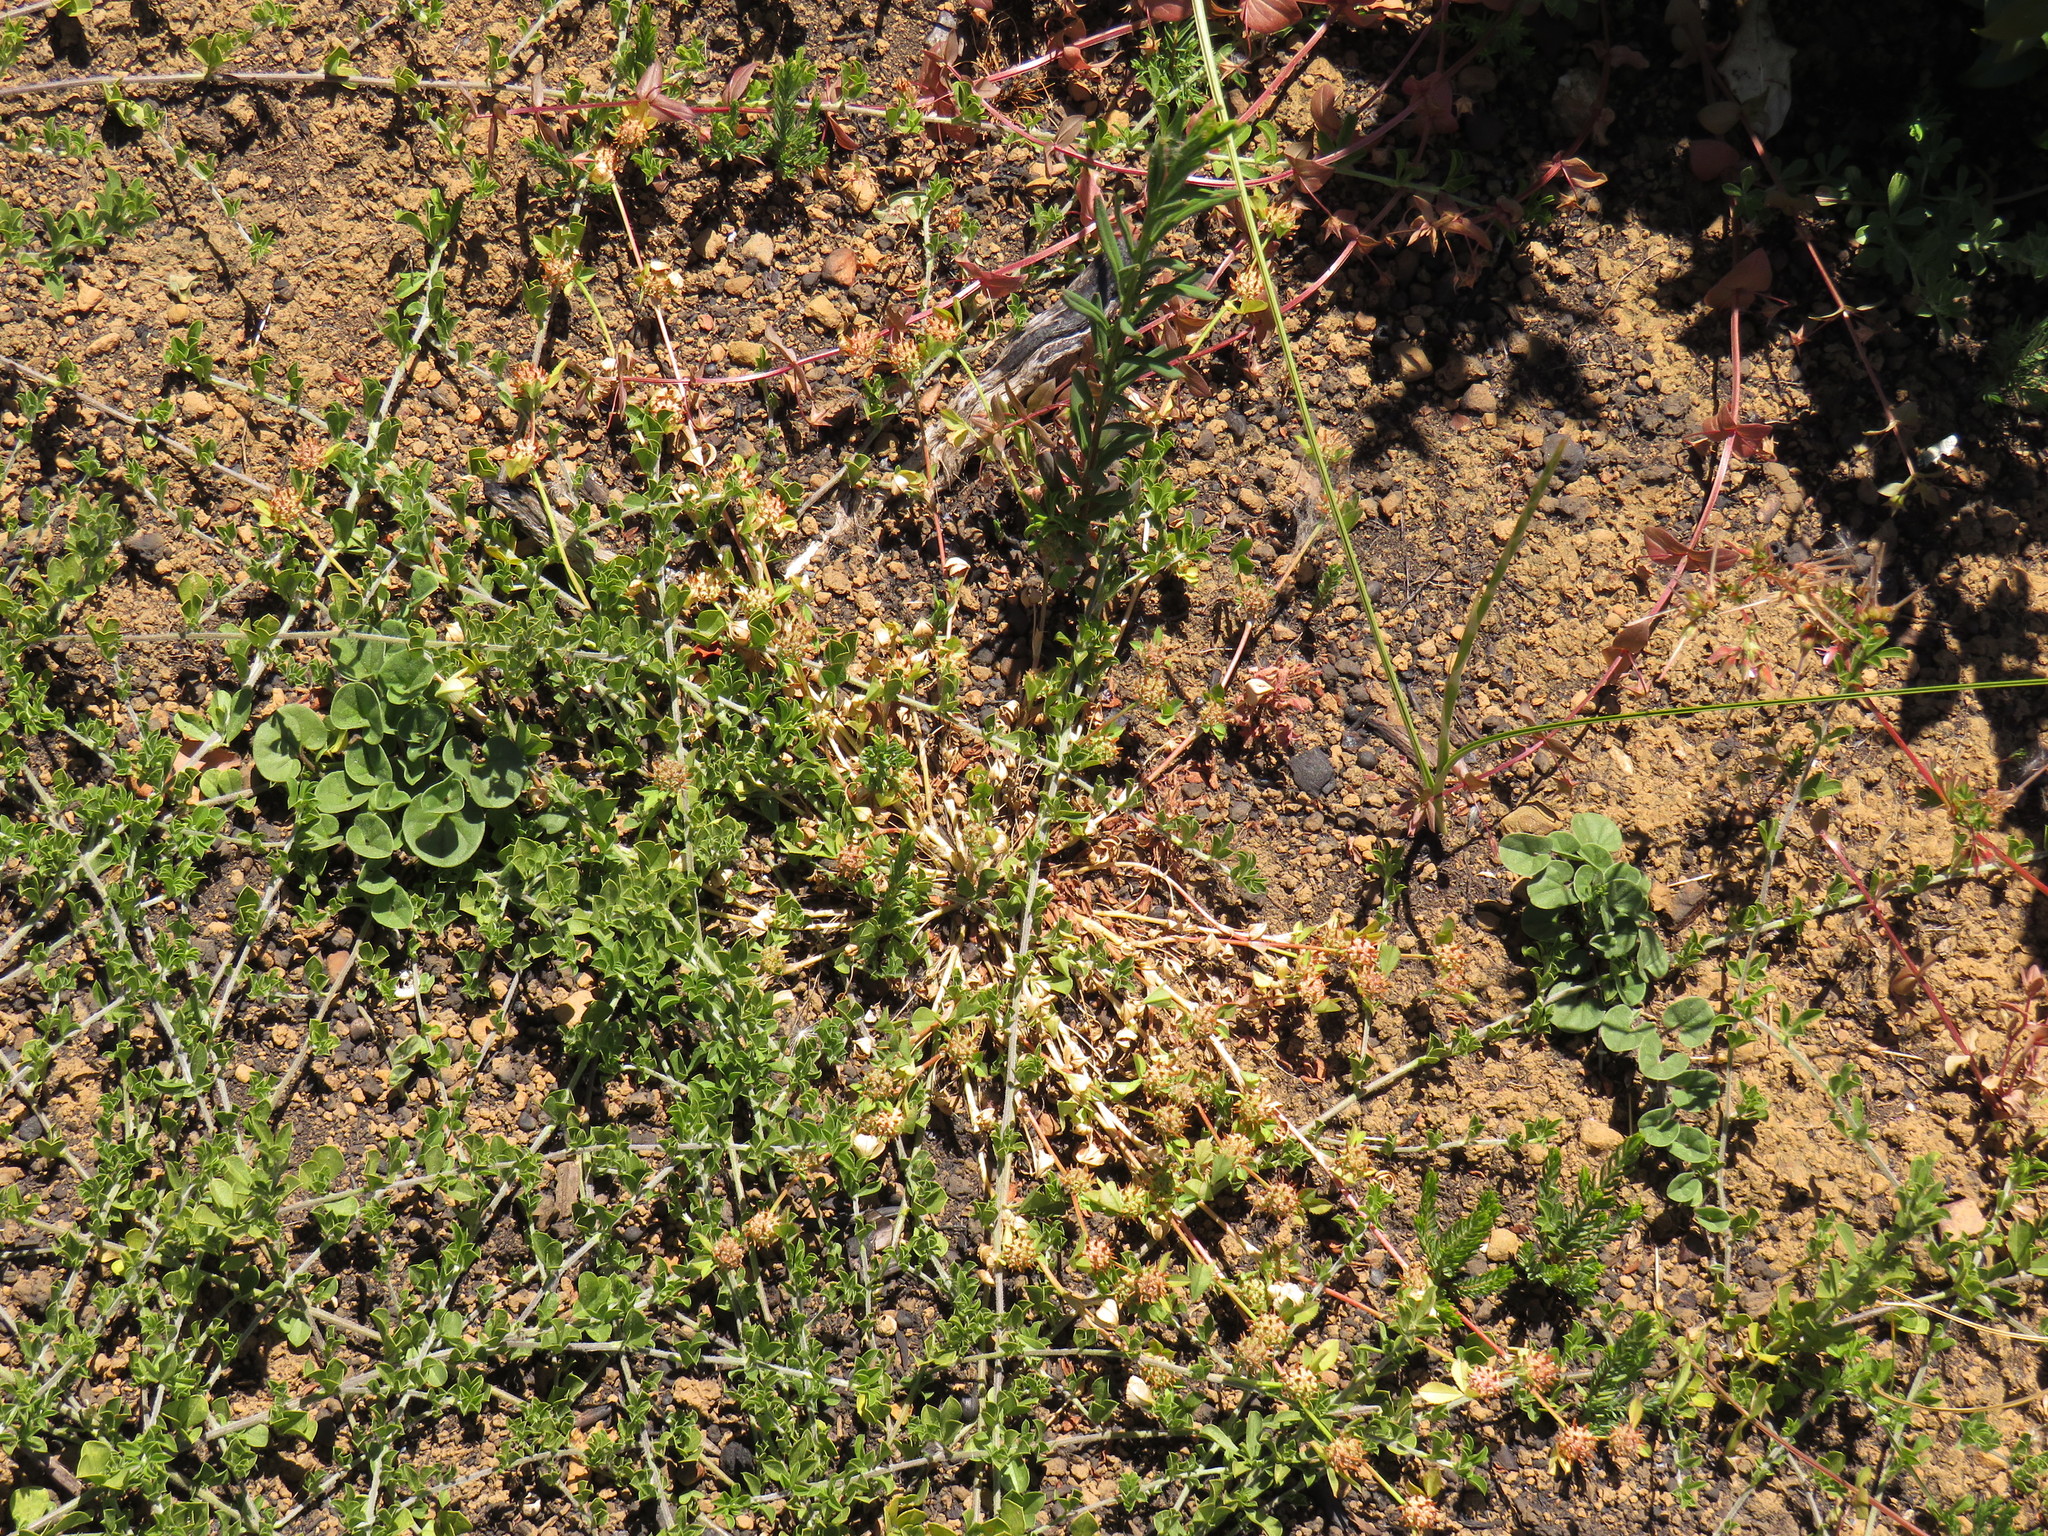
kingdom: Plantae
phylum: Tracheophyta
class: Magnoliopsida
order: Fabales
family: Fabaceae
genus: Trifolium
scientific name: Trifolium glomeratum
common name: Clustered clover
